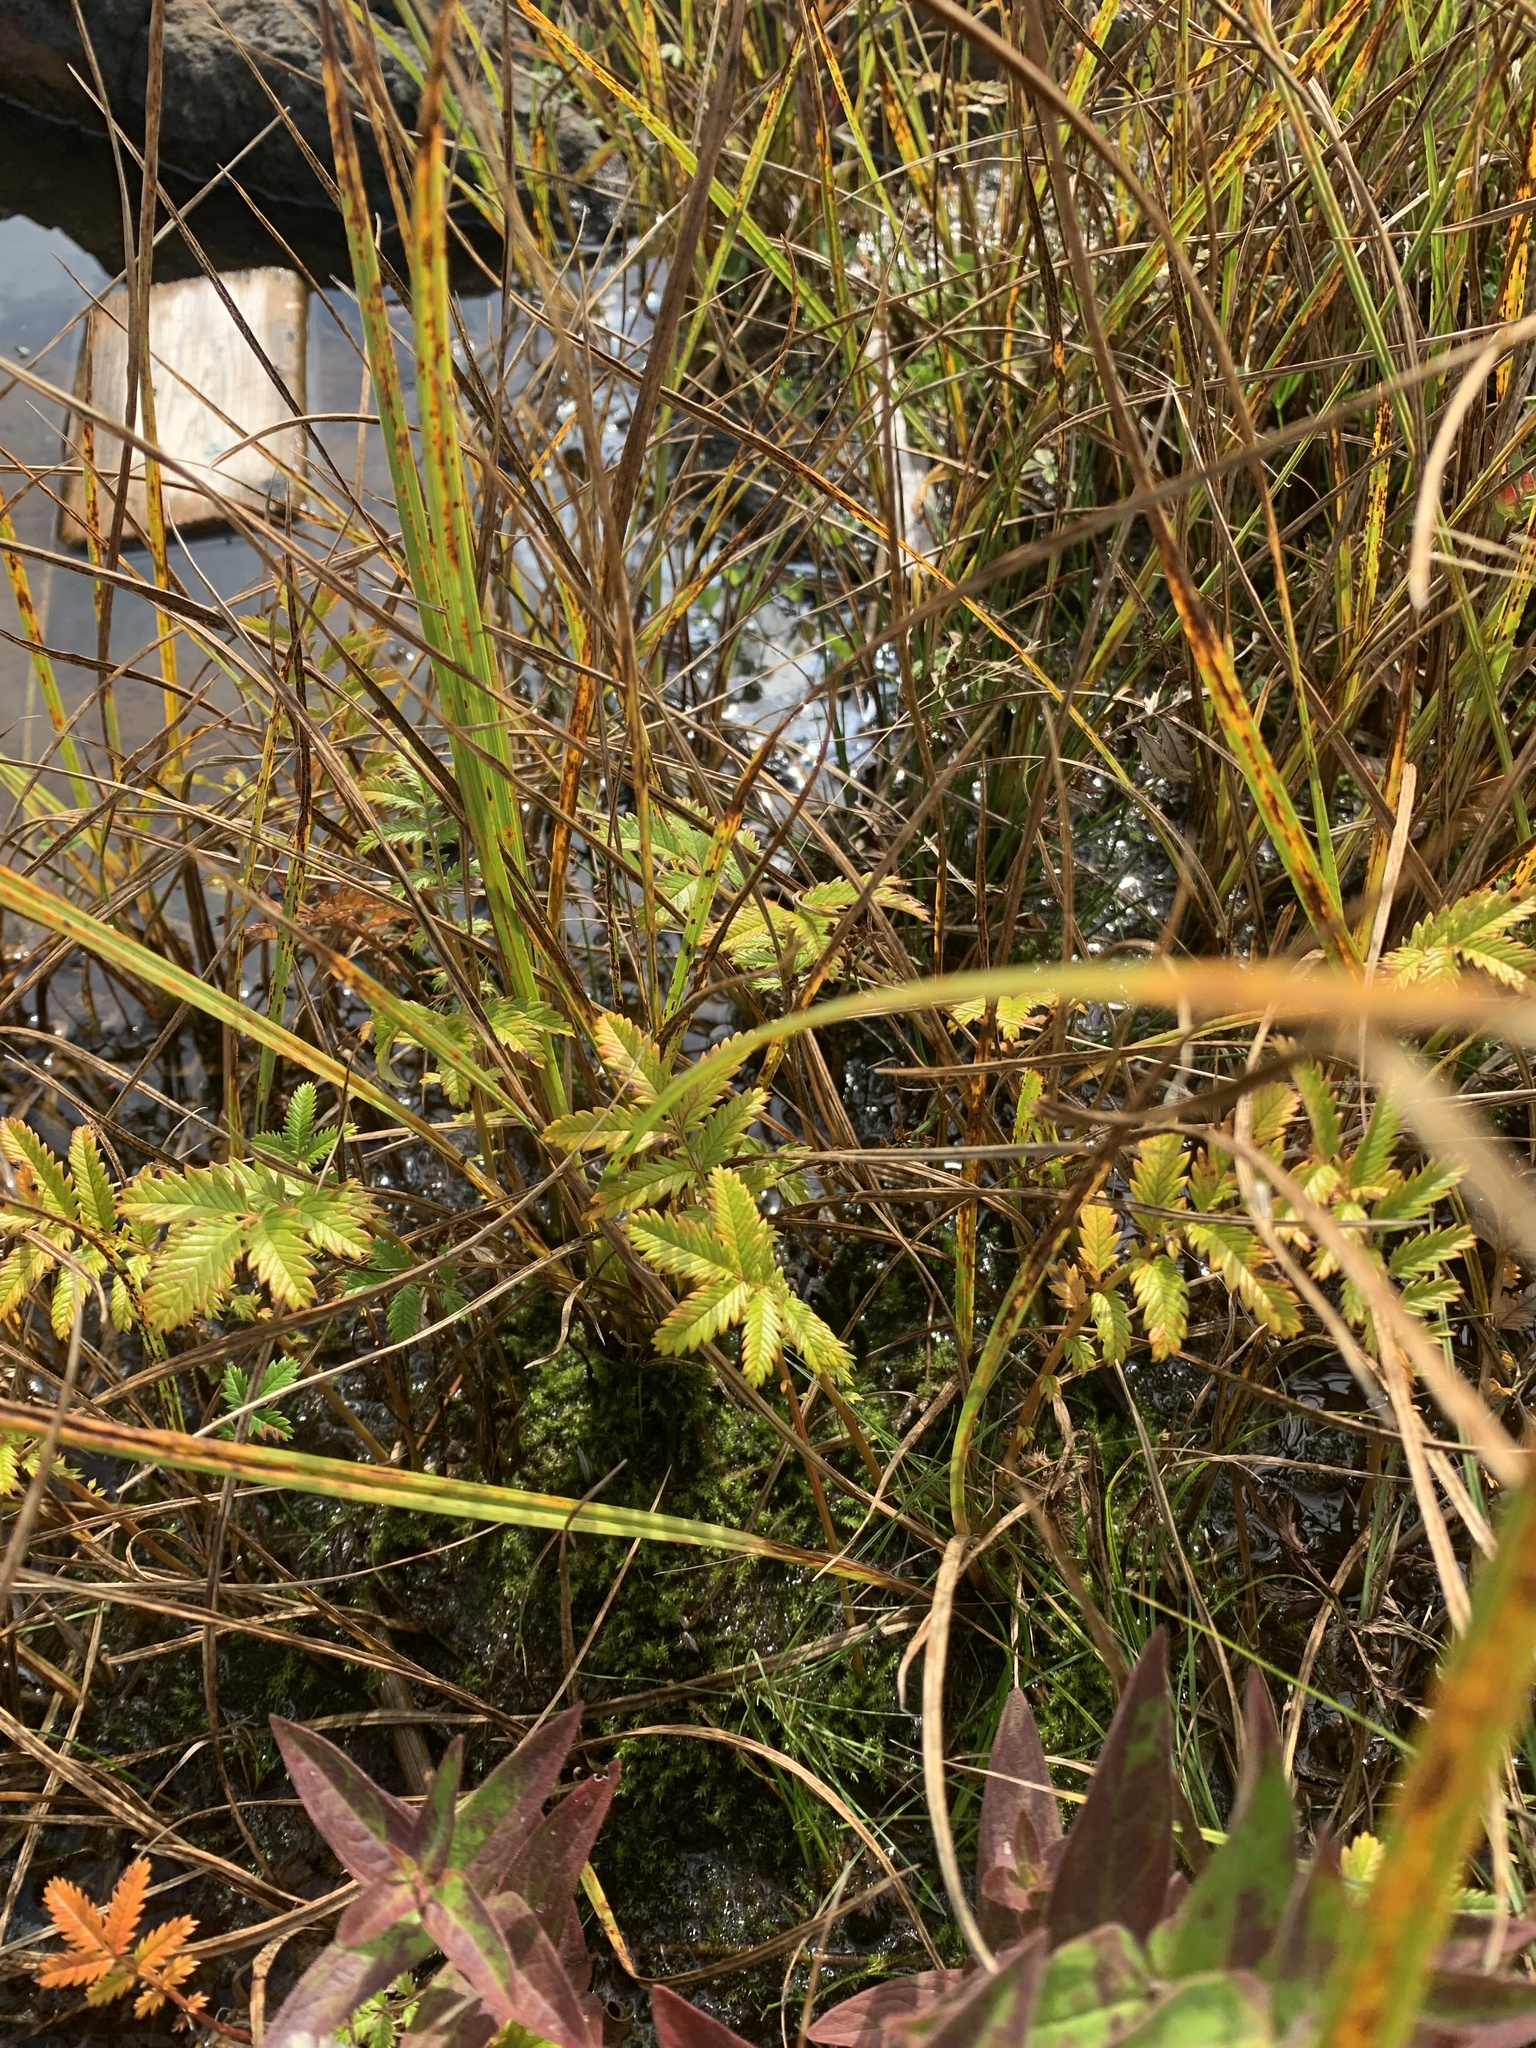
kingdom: Plantae
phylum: Tracheophyta
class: Magnoliopsida
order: Rosales
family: Rosaceae
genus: Argentina
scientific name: Argentina anserina
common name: Common silverweed
